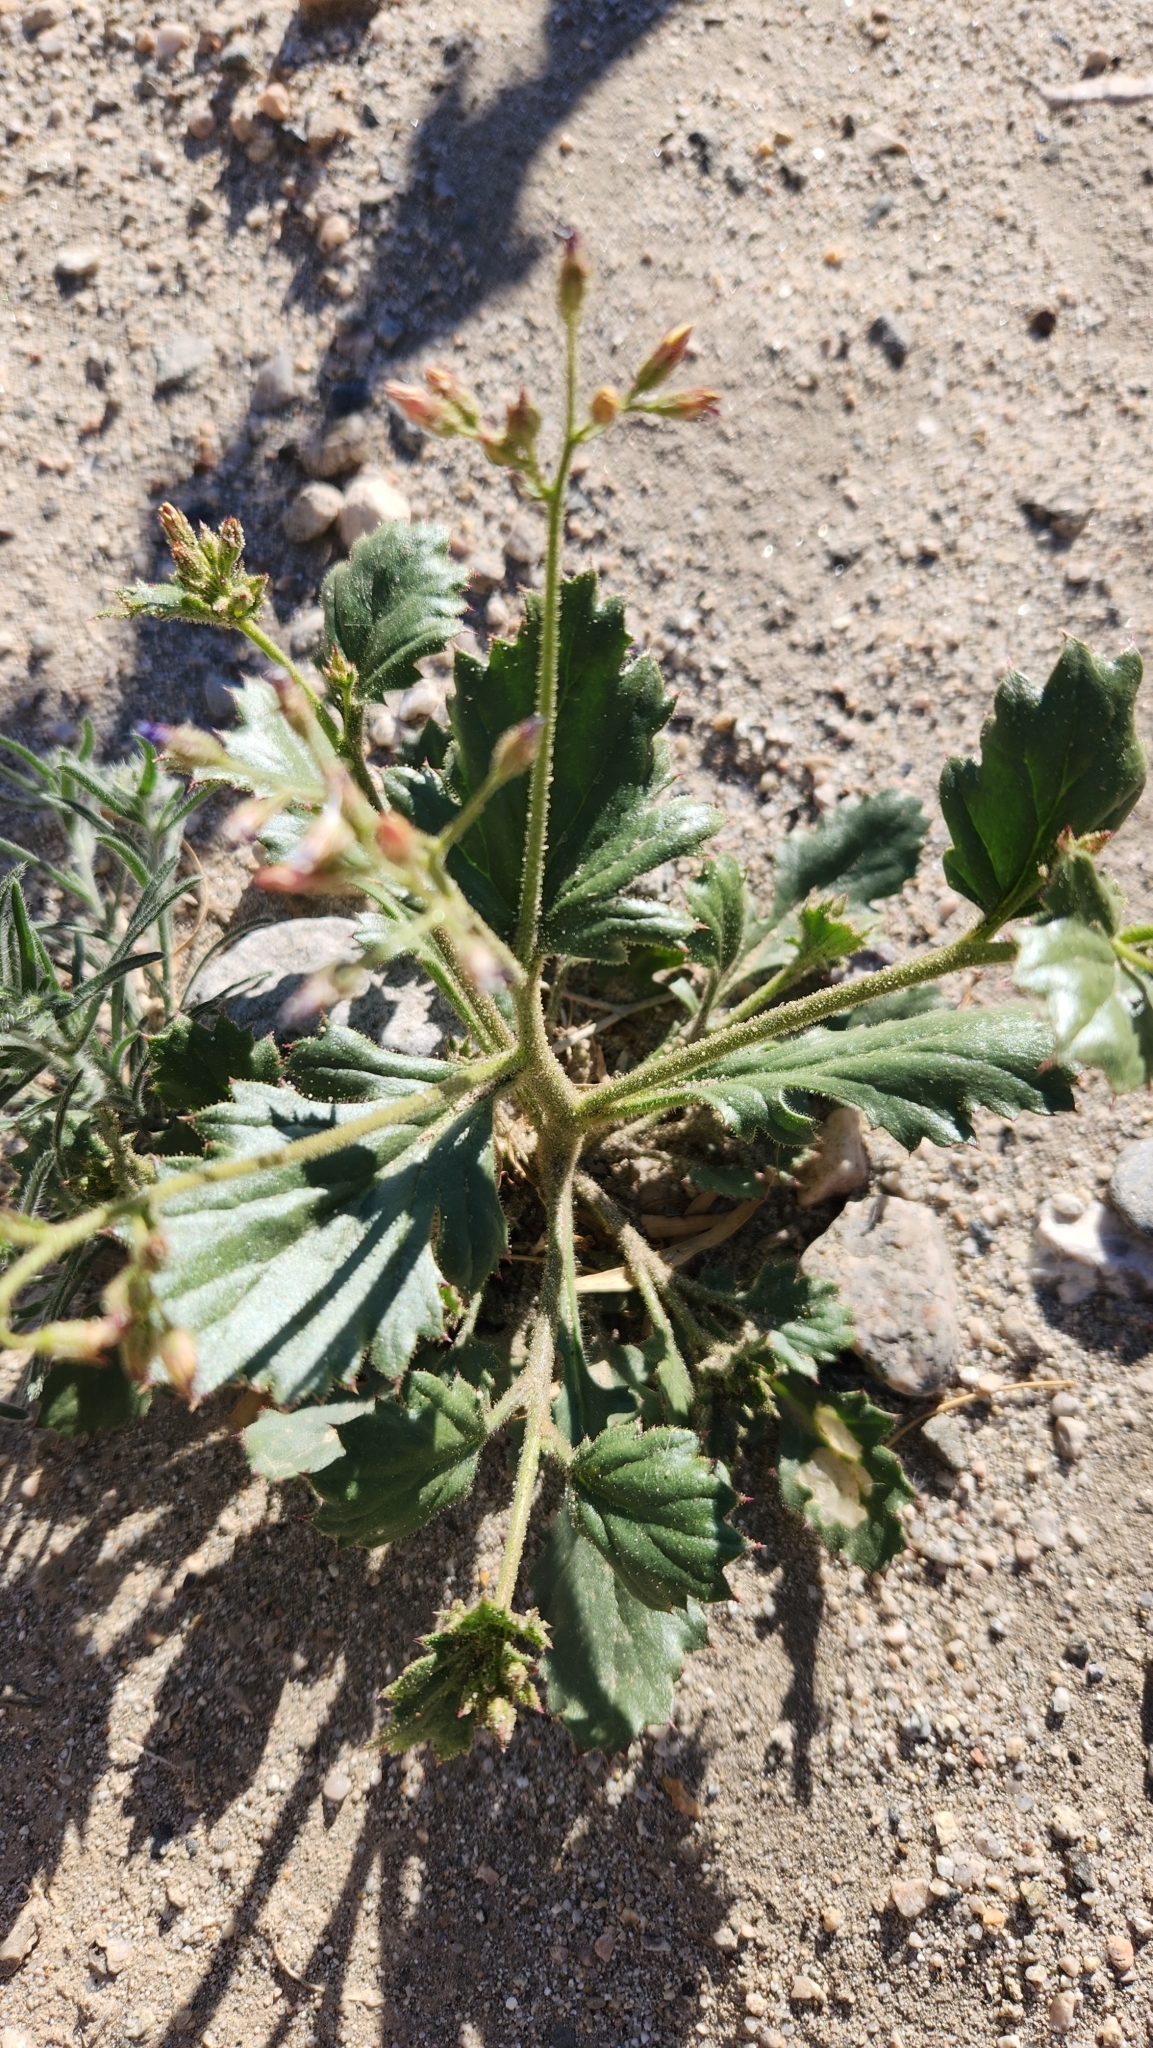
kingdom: Plantae
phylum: Tracheophyta
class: Magnoliopsida
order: Ericales
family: Polemoniaceae
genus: Aliciella
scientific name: Aliciella latifolia
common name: Broad-leaf gilia
